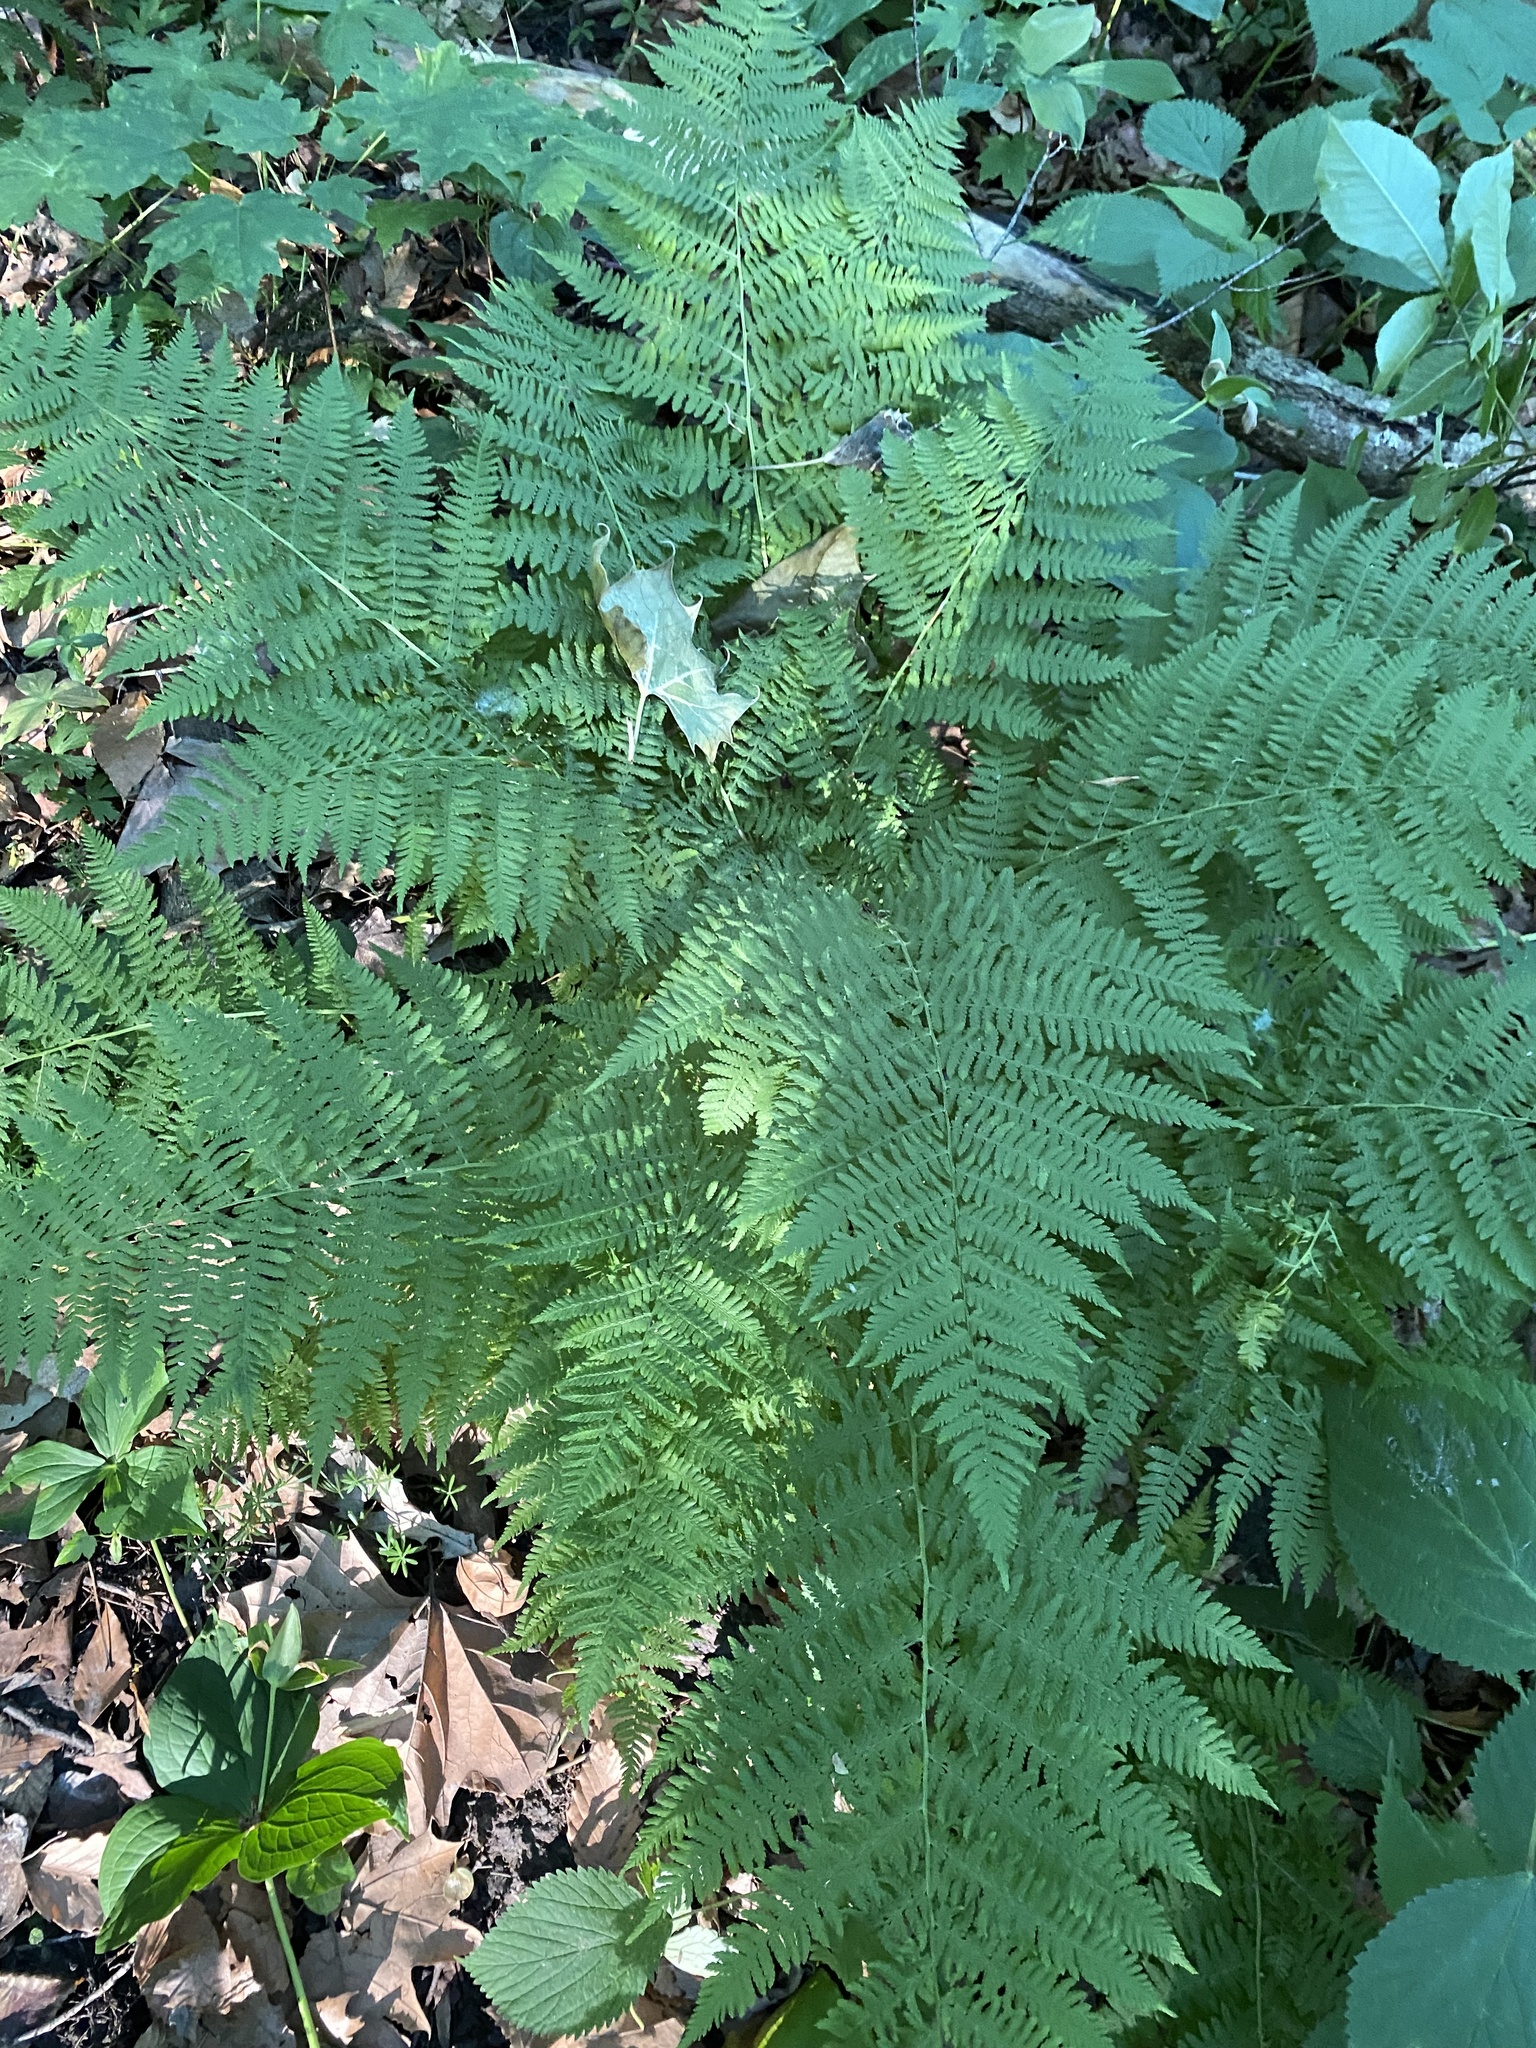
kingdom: Plantae
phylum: Tracheophyta
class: Polypodiopsida
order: Polypodiales
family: Athyriaceae
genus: Athyrium
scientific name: Athyrium angustum
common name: Northern lady fern
